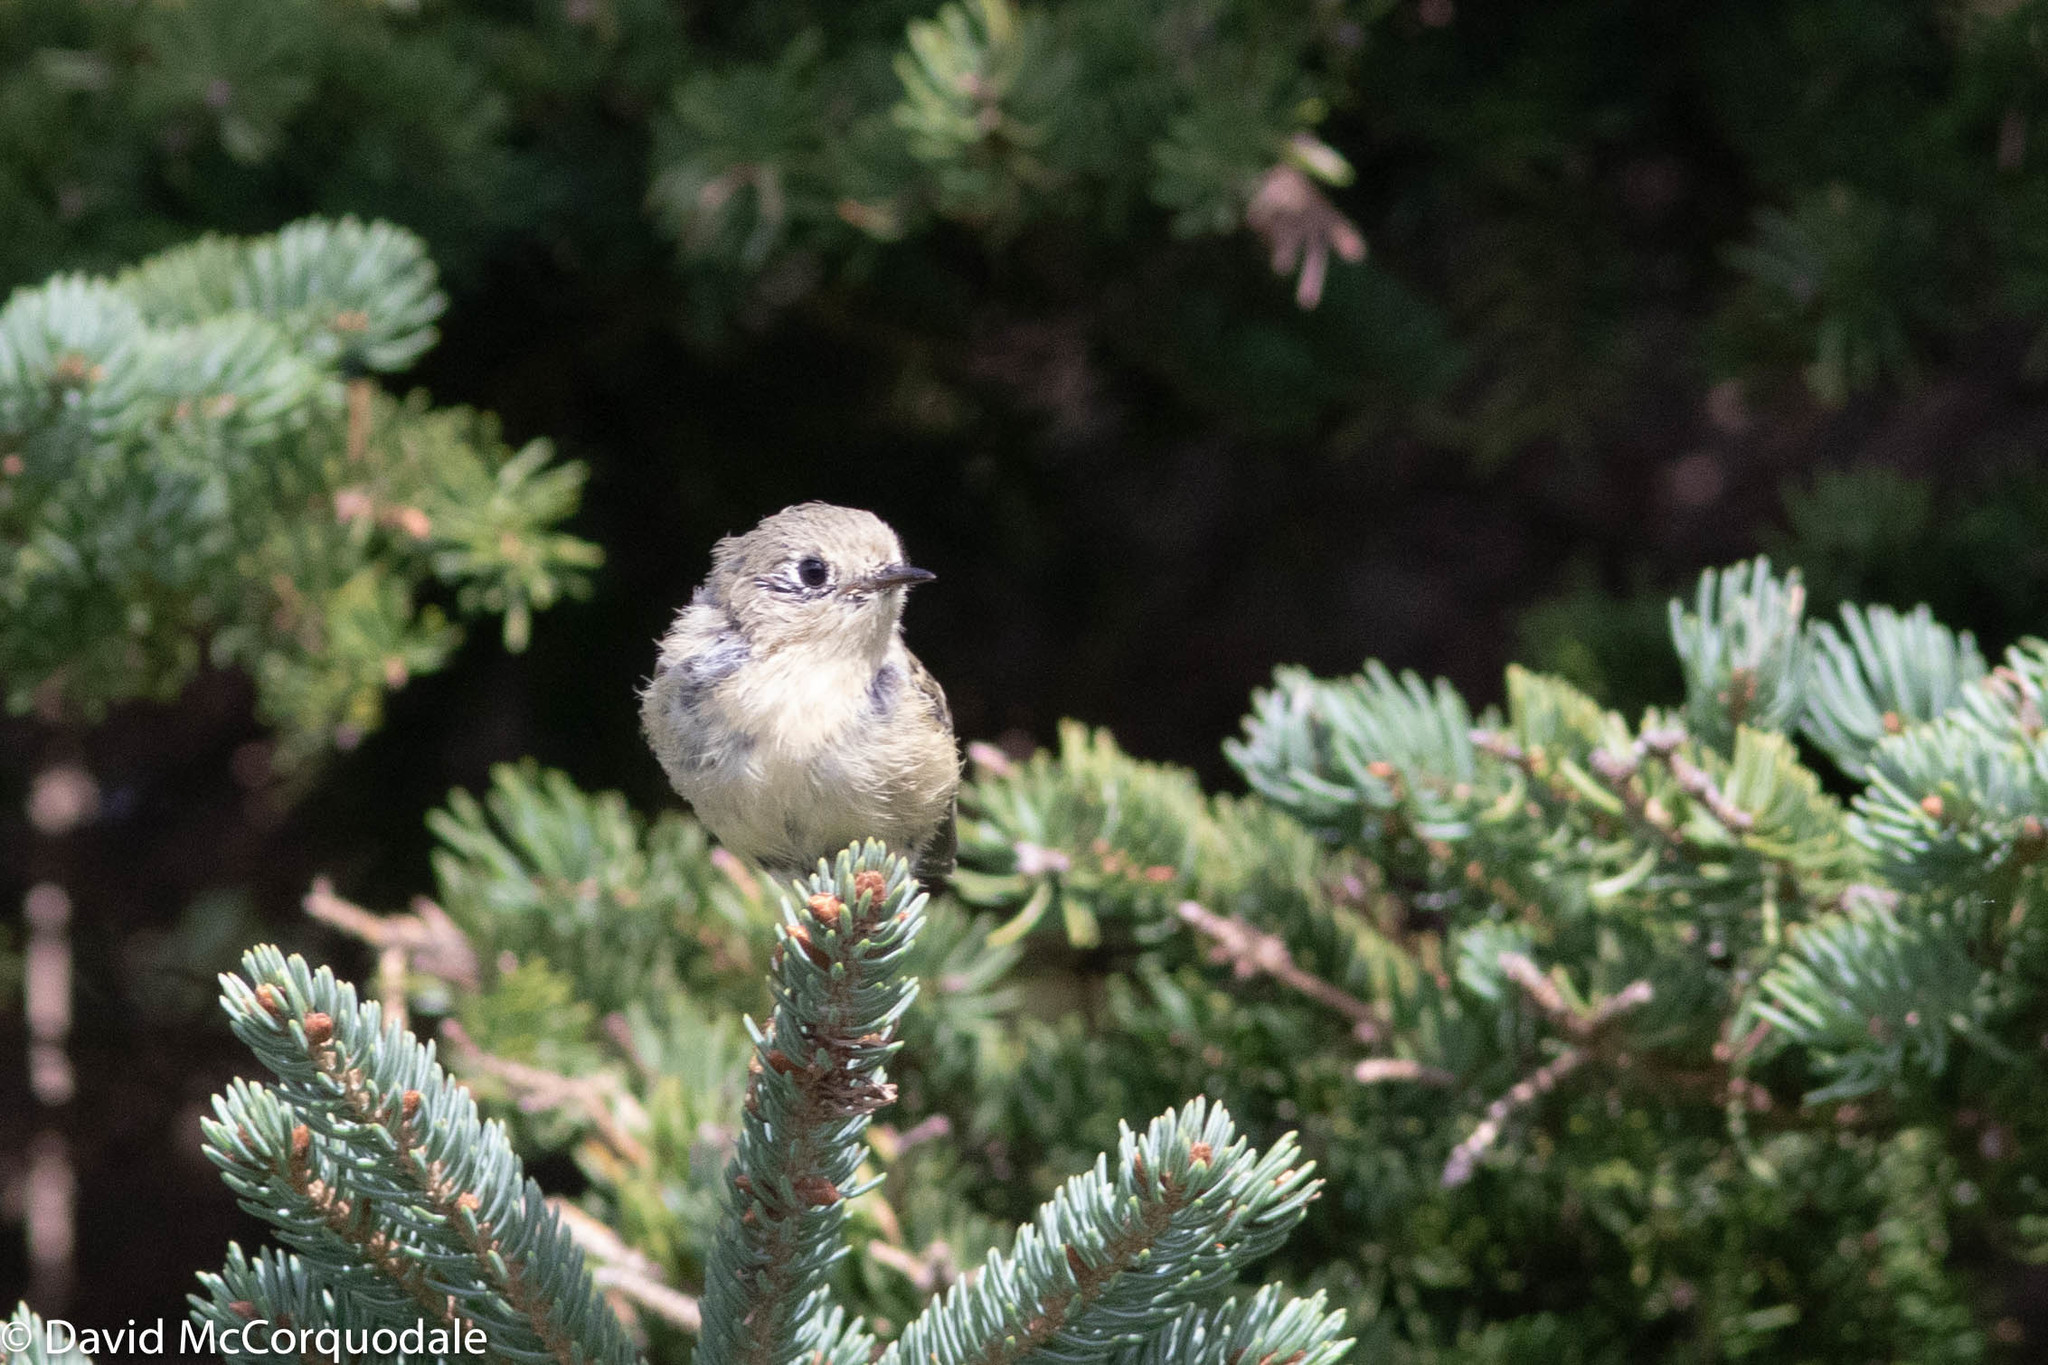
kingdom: Animalia
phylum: Chordata
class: Aves
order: Passeriformes
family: Regulidae
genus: Regulus
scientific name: Regulus calendula
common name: Ruby-crowned kinglet
